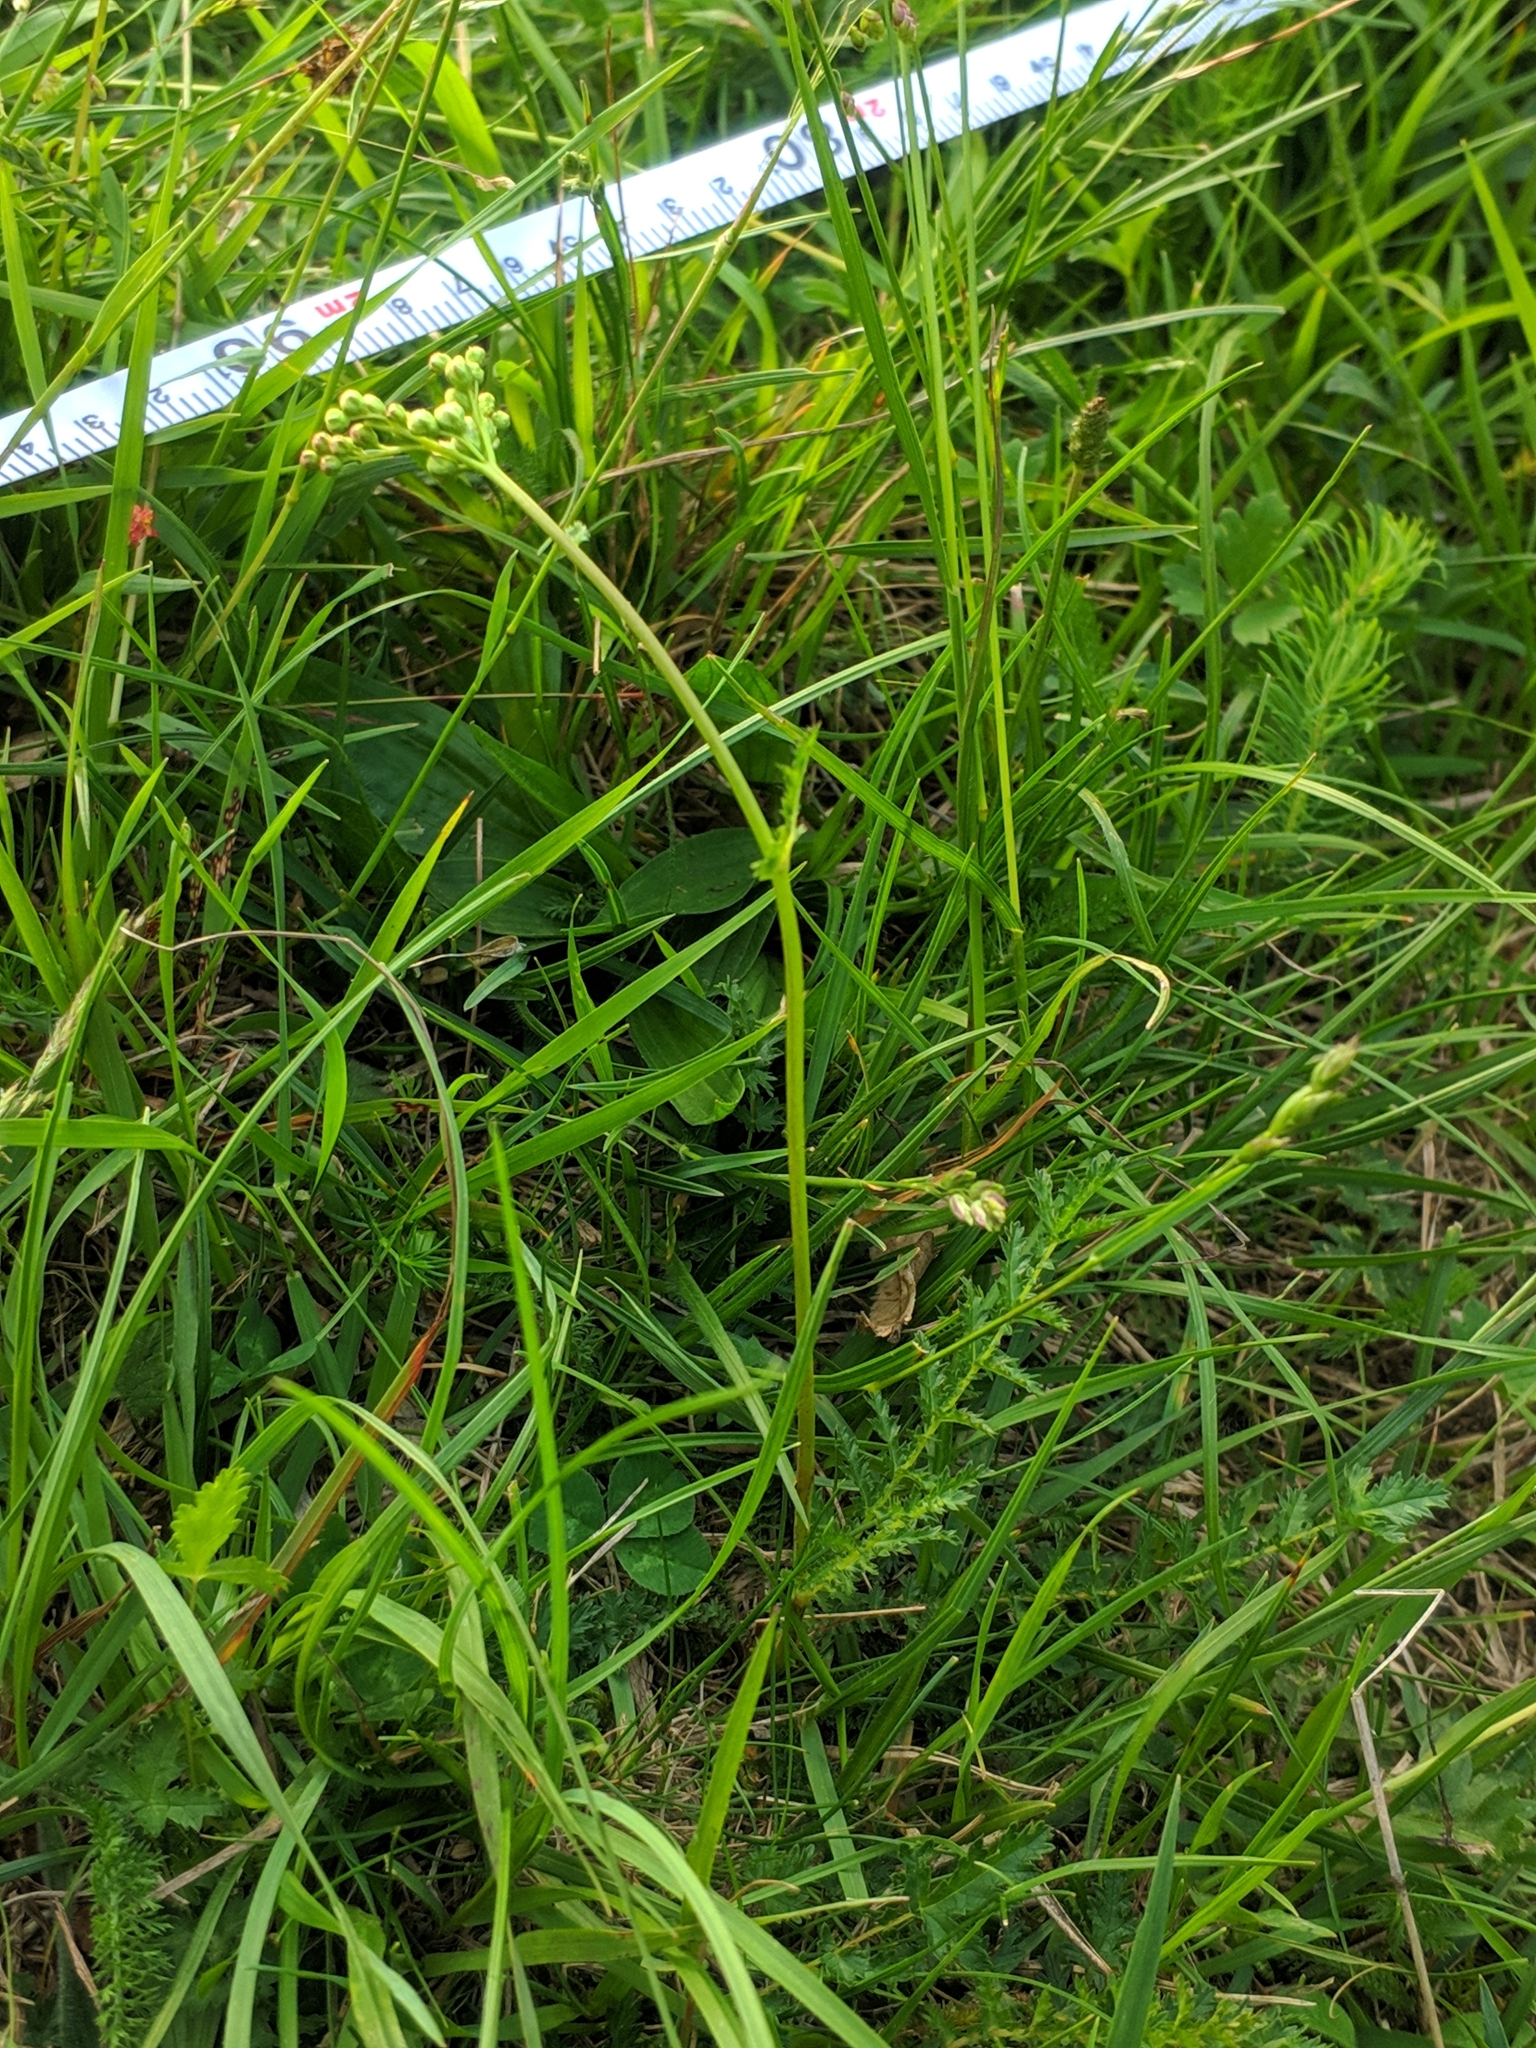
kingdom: Plantae
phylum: Tracheophyta
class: Magnoliopsida
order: Rosales
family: Rosaceae
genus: Filipendula
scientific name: Filipendula vulgaris
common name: Dropwort
